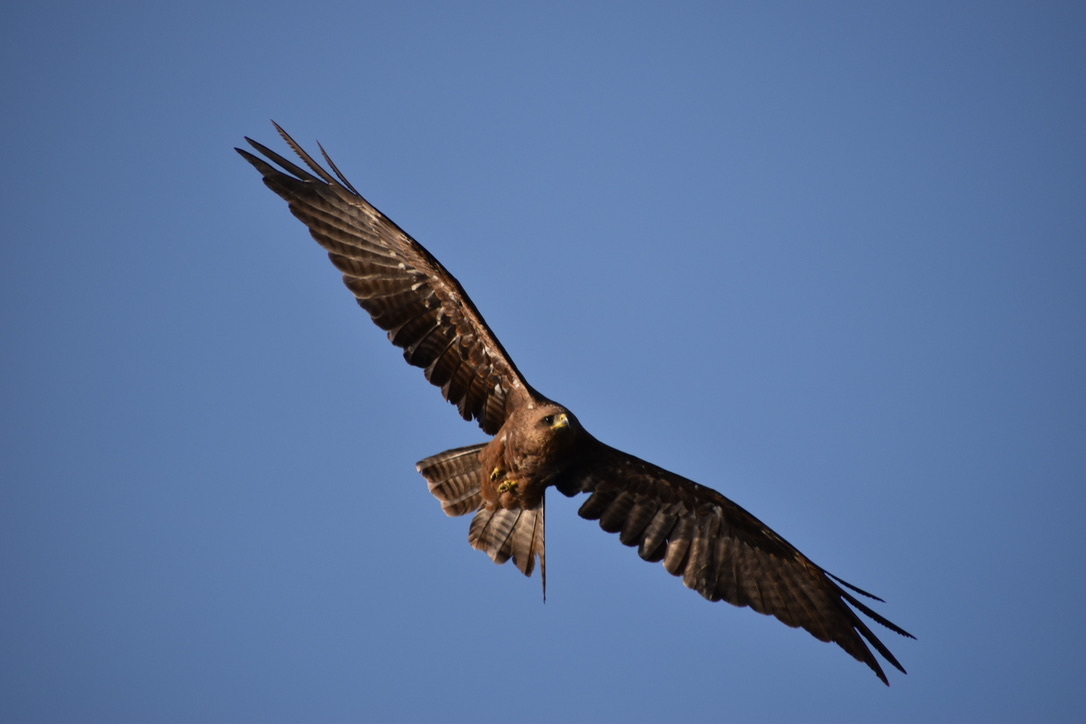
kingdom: Animalia
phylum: Chordata
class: Aves
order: Accipitriformes
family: Accipitridae
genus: Milvus
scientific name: Milvus migrans
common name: Black kite
